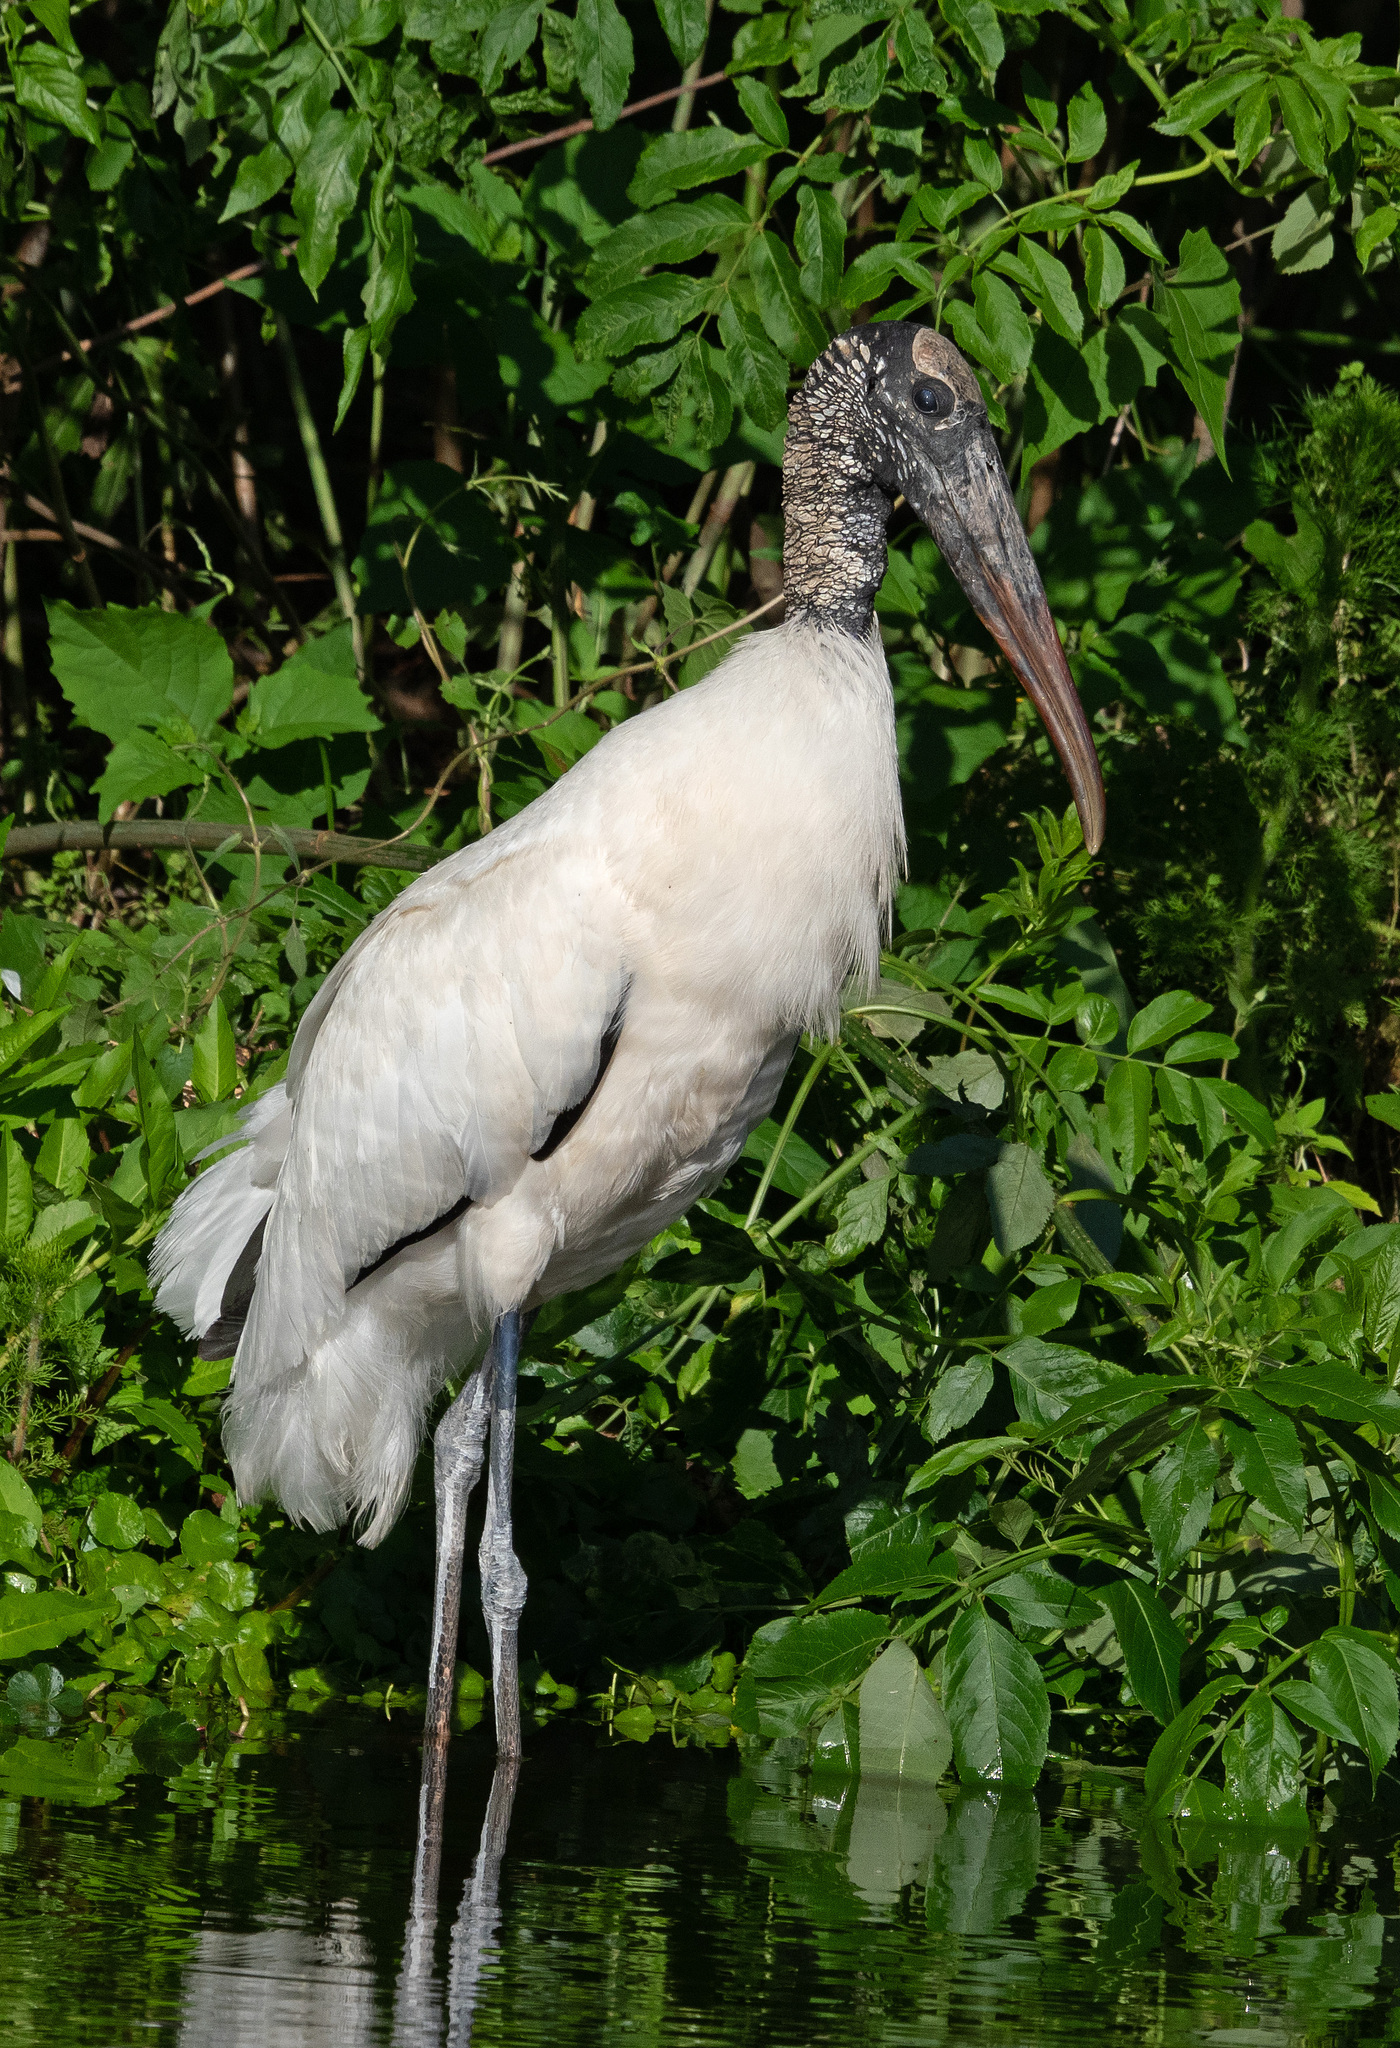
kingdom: Animalia
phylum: Chordata
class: Aves
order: Ciconiiformes
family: Ciconiidae
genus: Mycteria
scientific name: Mycteria americana
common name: Wood stork
